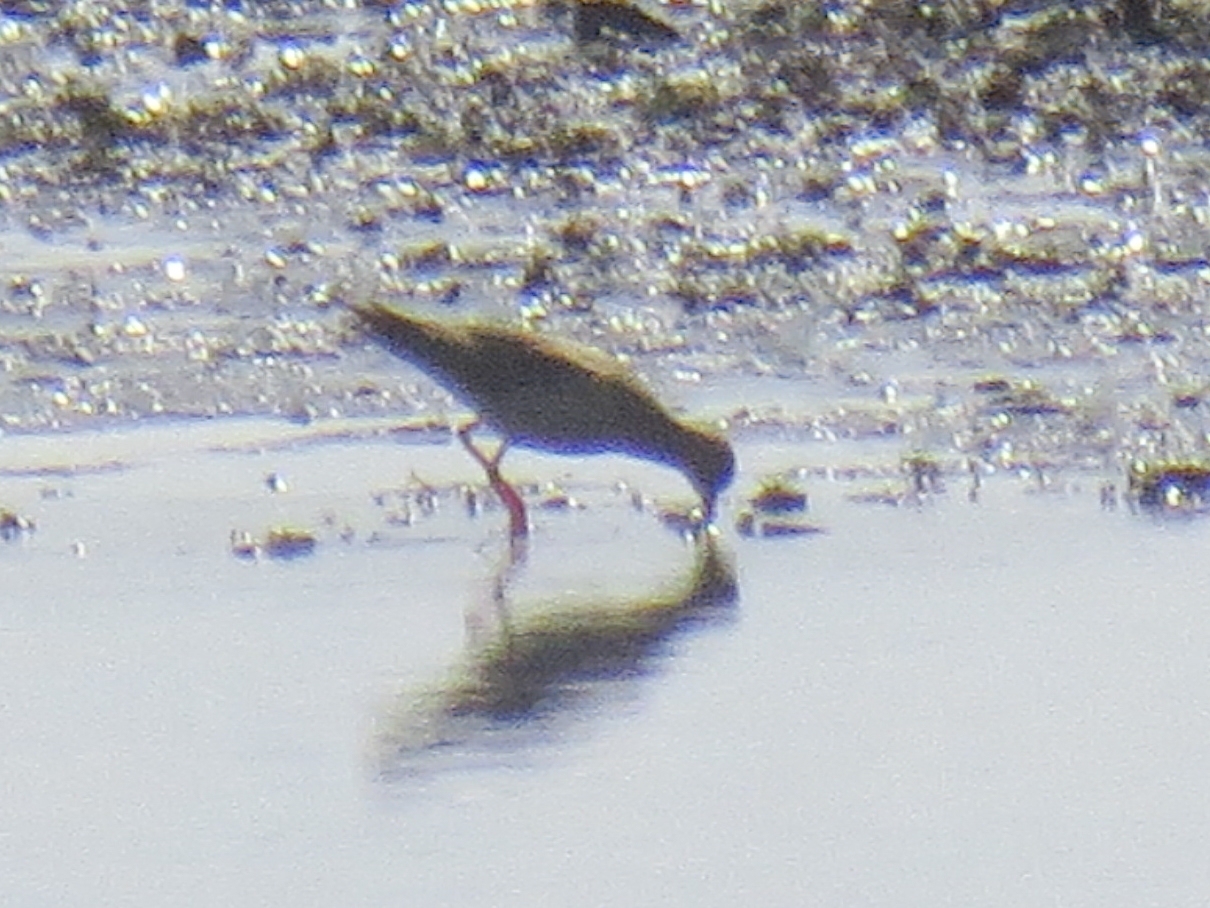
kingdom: Animalia
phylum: Chordata
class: Aves
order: Charadriiformes
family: Scolopacidae
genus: Tringa
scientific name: Tringa totanus
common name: Common redshank
